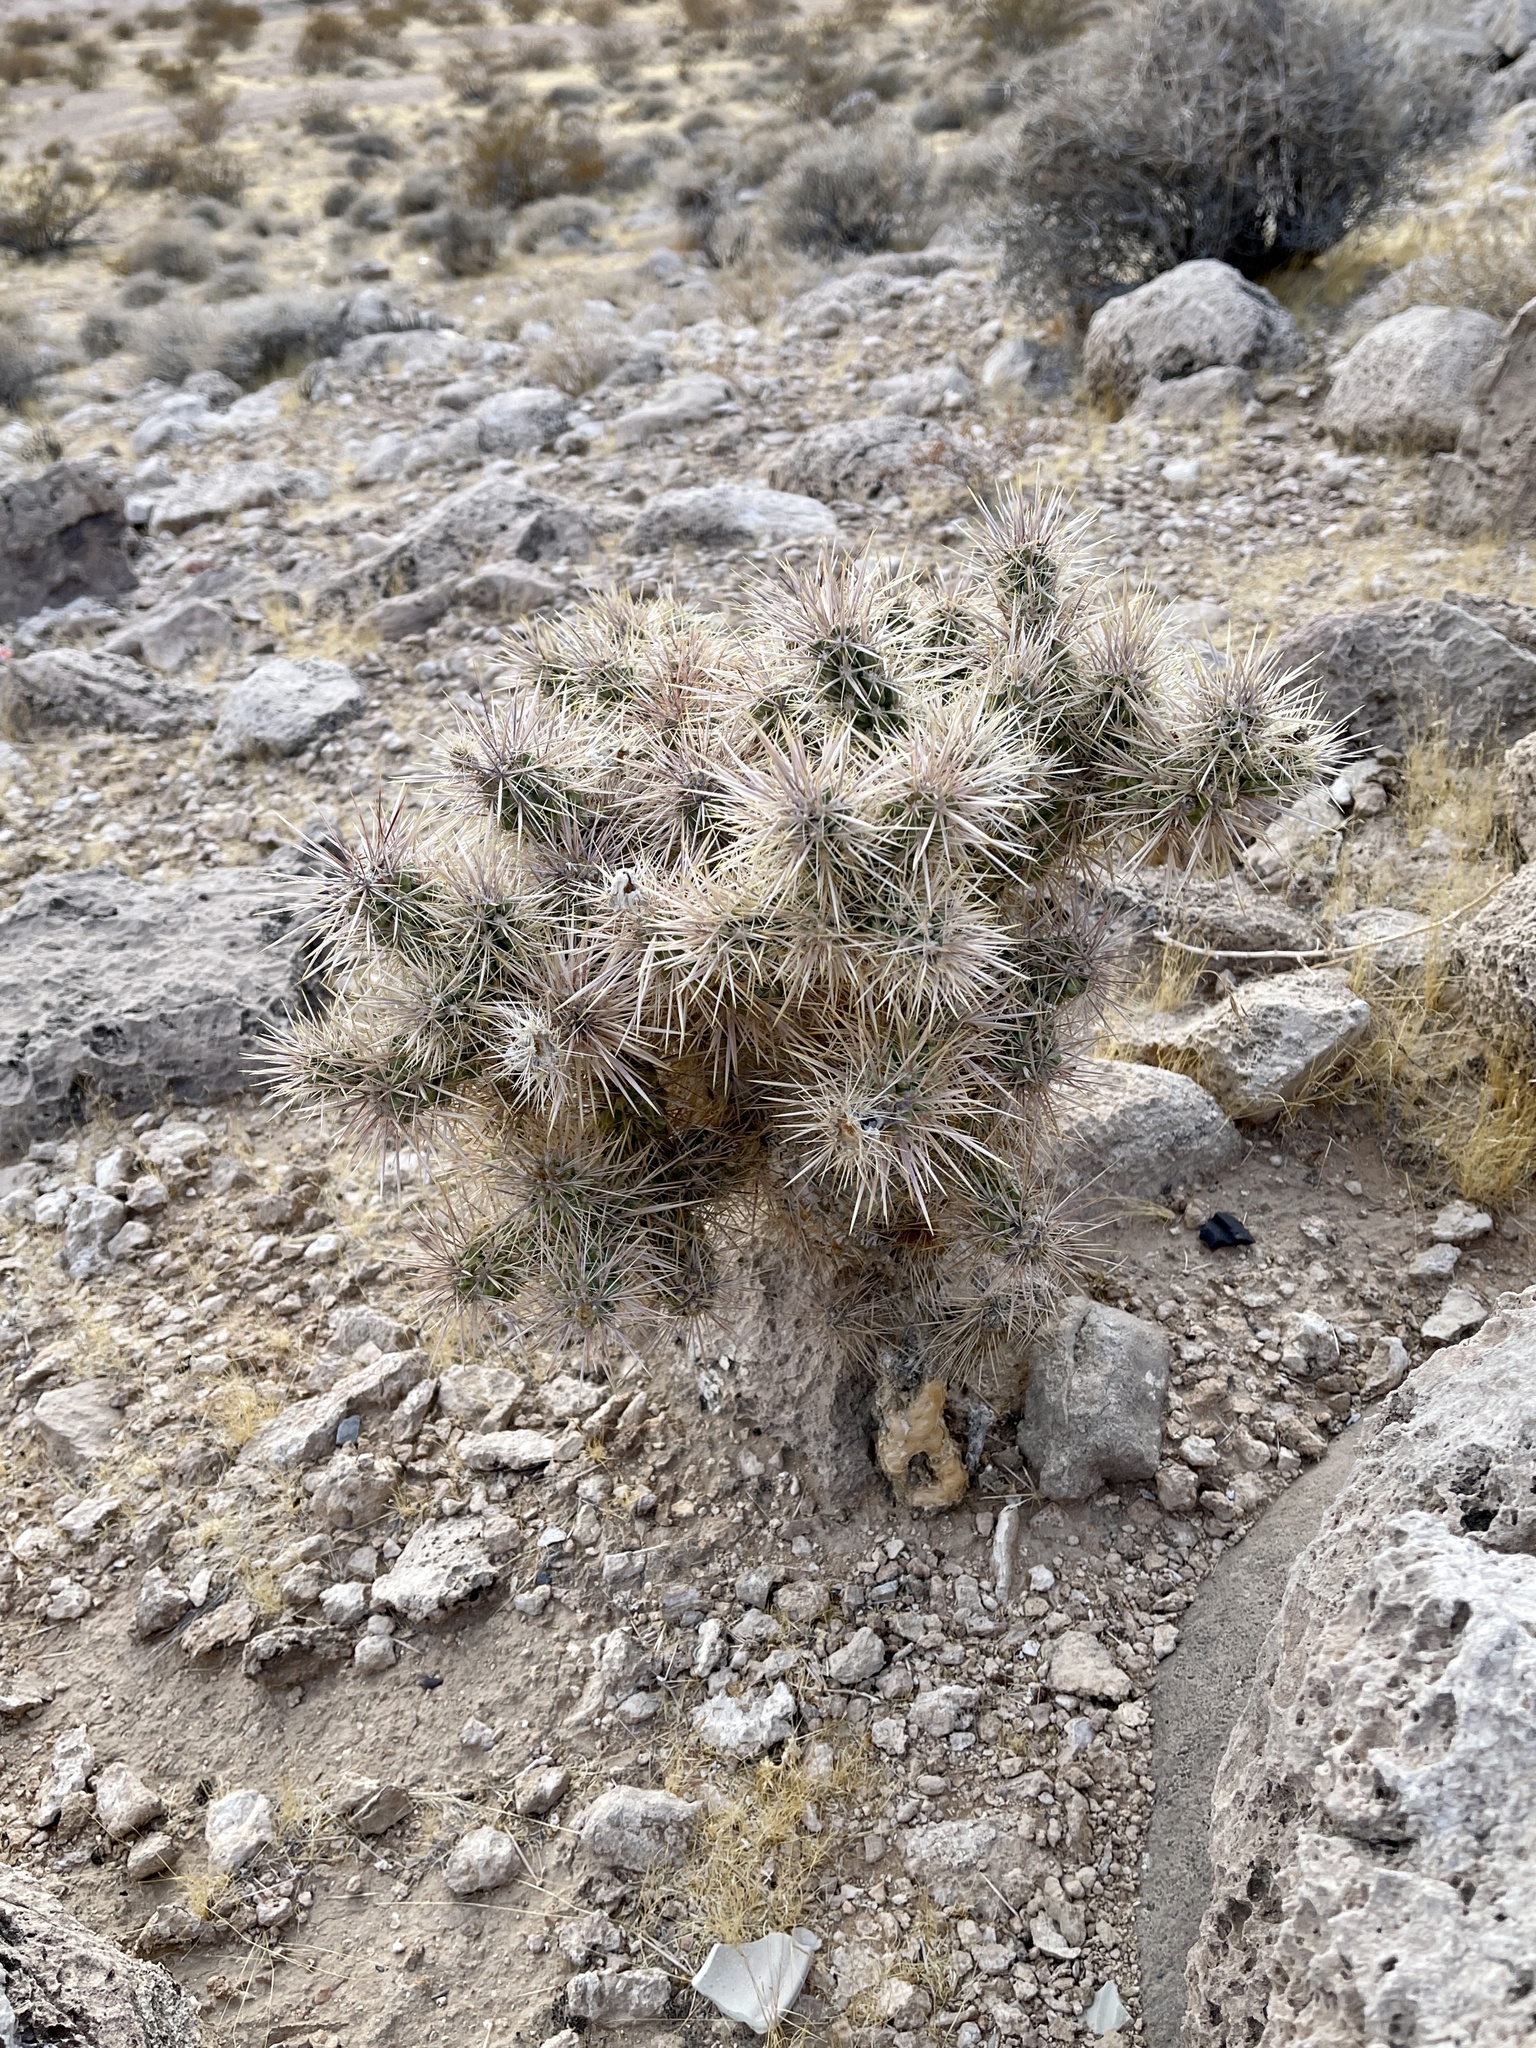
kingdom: Plantae
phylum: Tracheophyta
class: Magnoliopsida
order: Caryophyllales
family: Cactaceae
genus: Cylindropuntia
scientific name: Cylindropuntia echinocarpa
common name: Ground cholla
